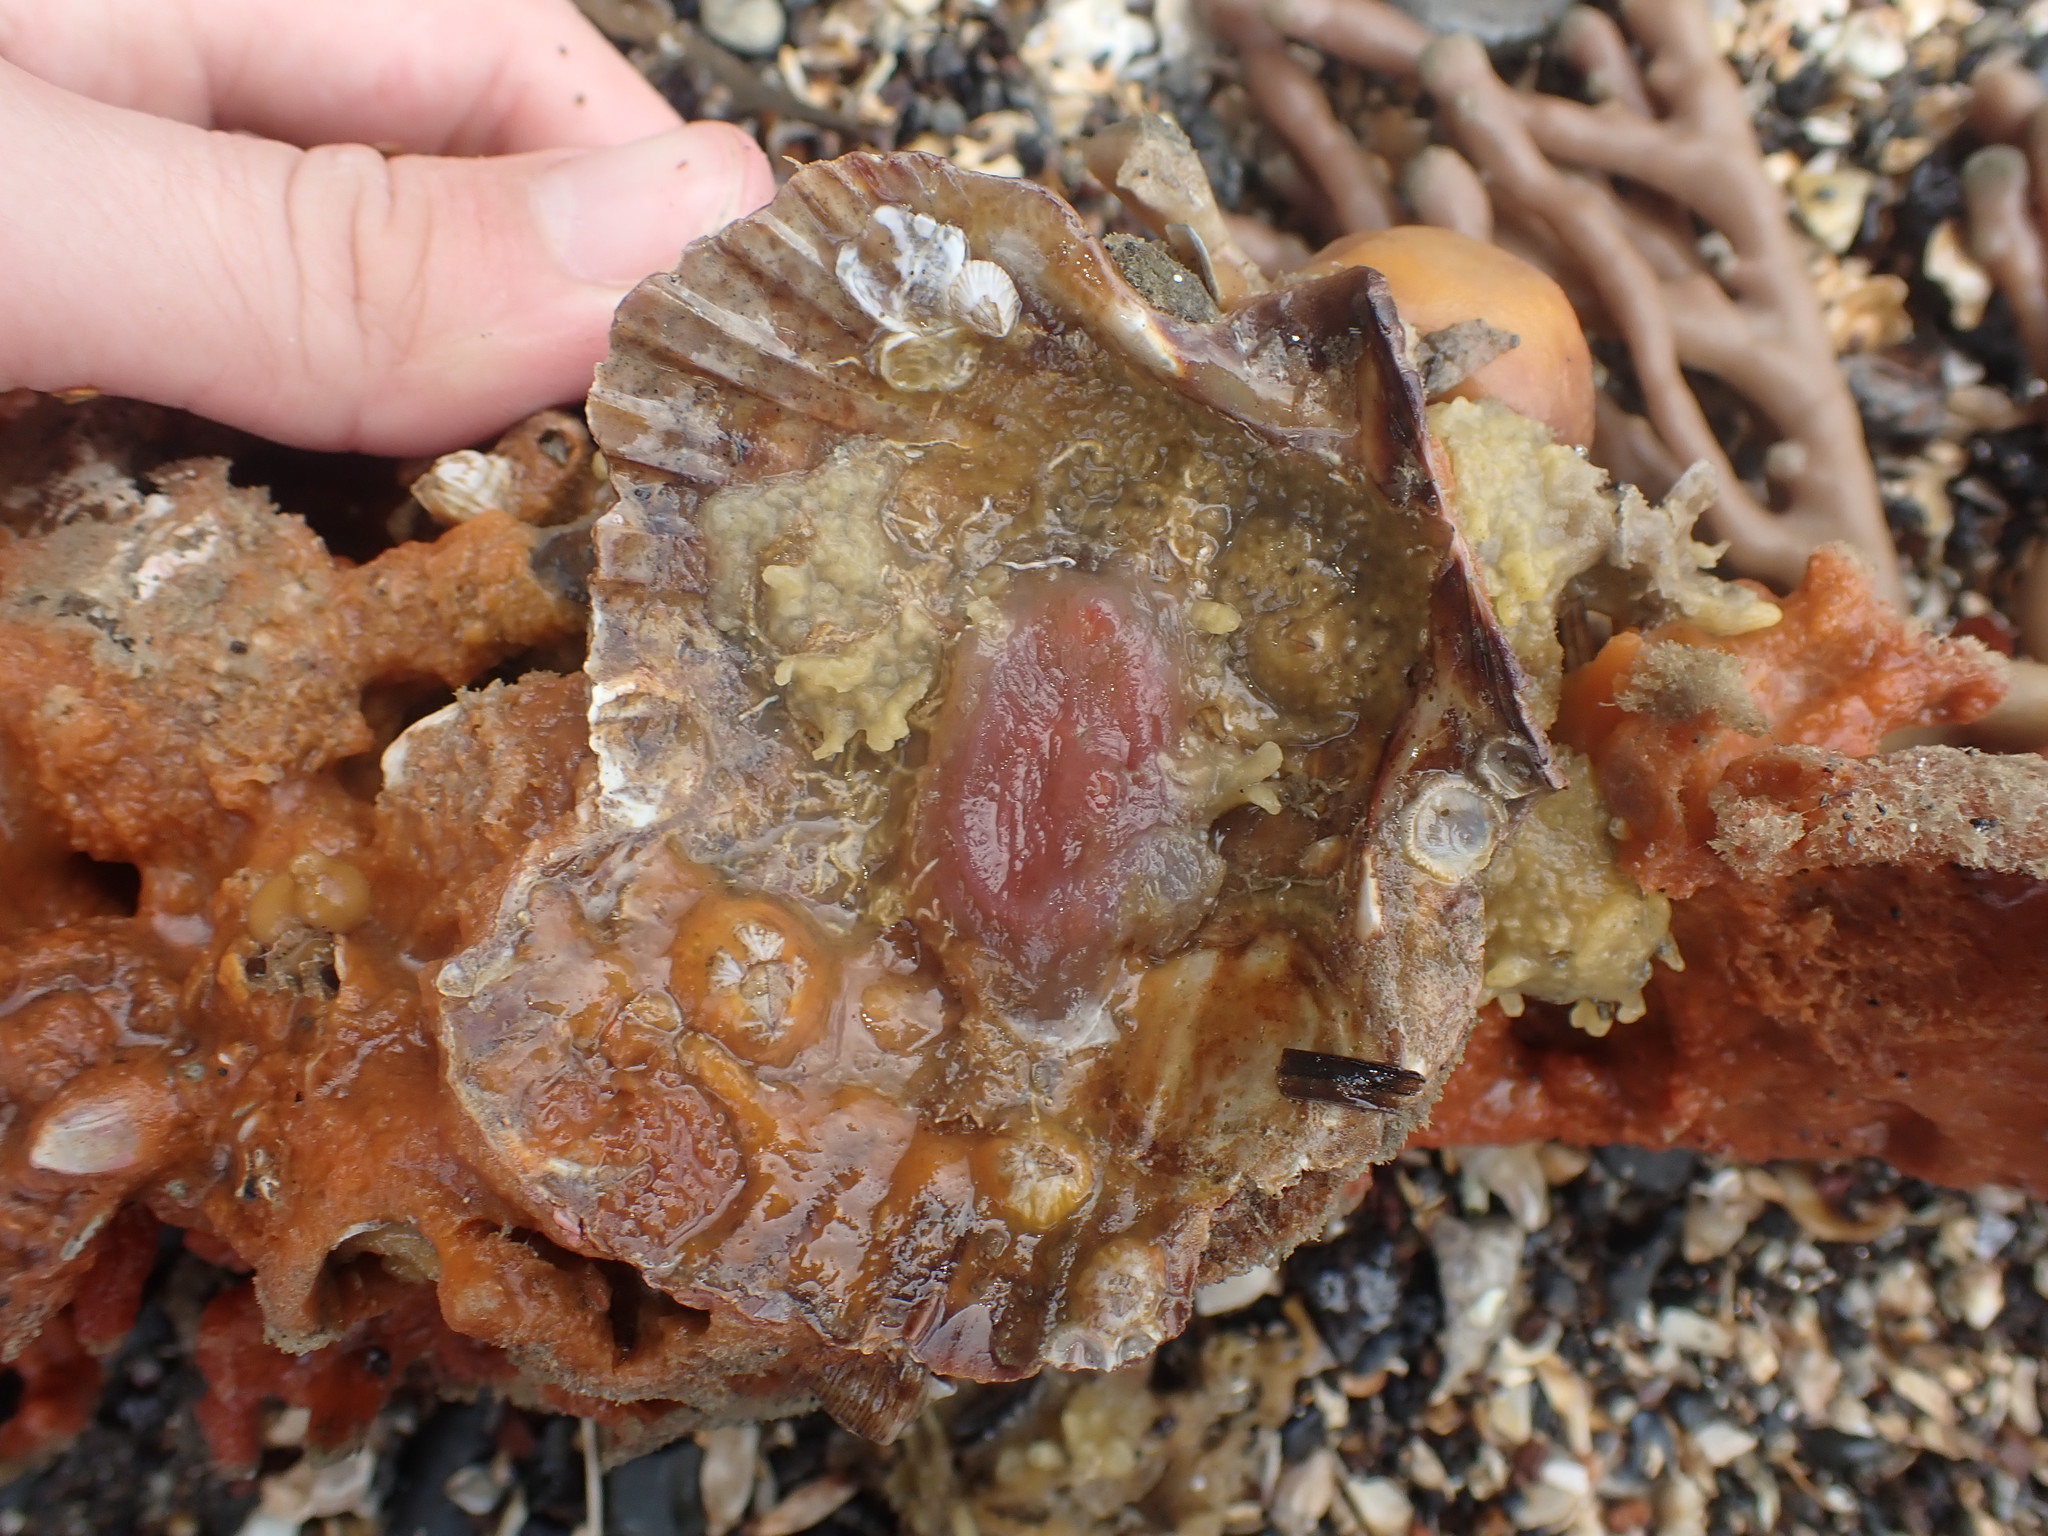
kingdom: Animalia
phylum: Mollusca
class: Bivalvia
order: Pectinida
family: Pectinidae
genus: Pecten
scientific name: Pecten novaezelandiae
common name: New zealand scallop
